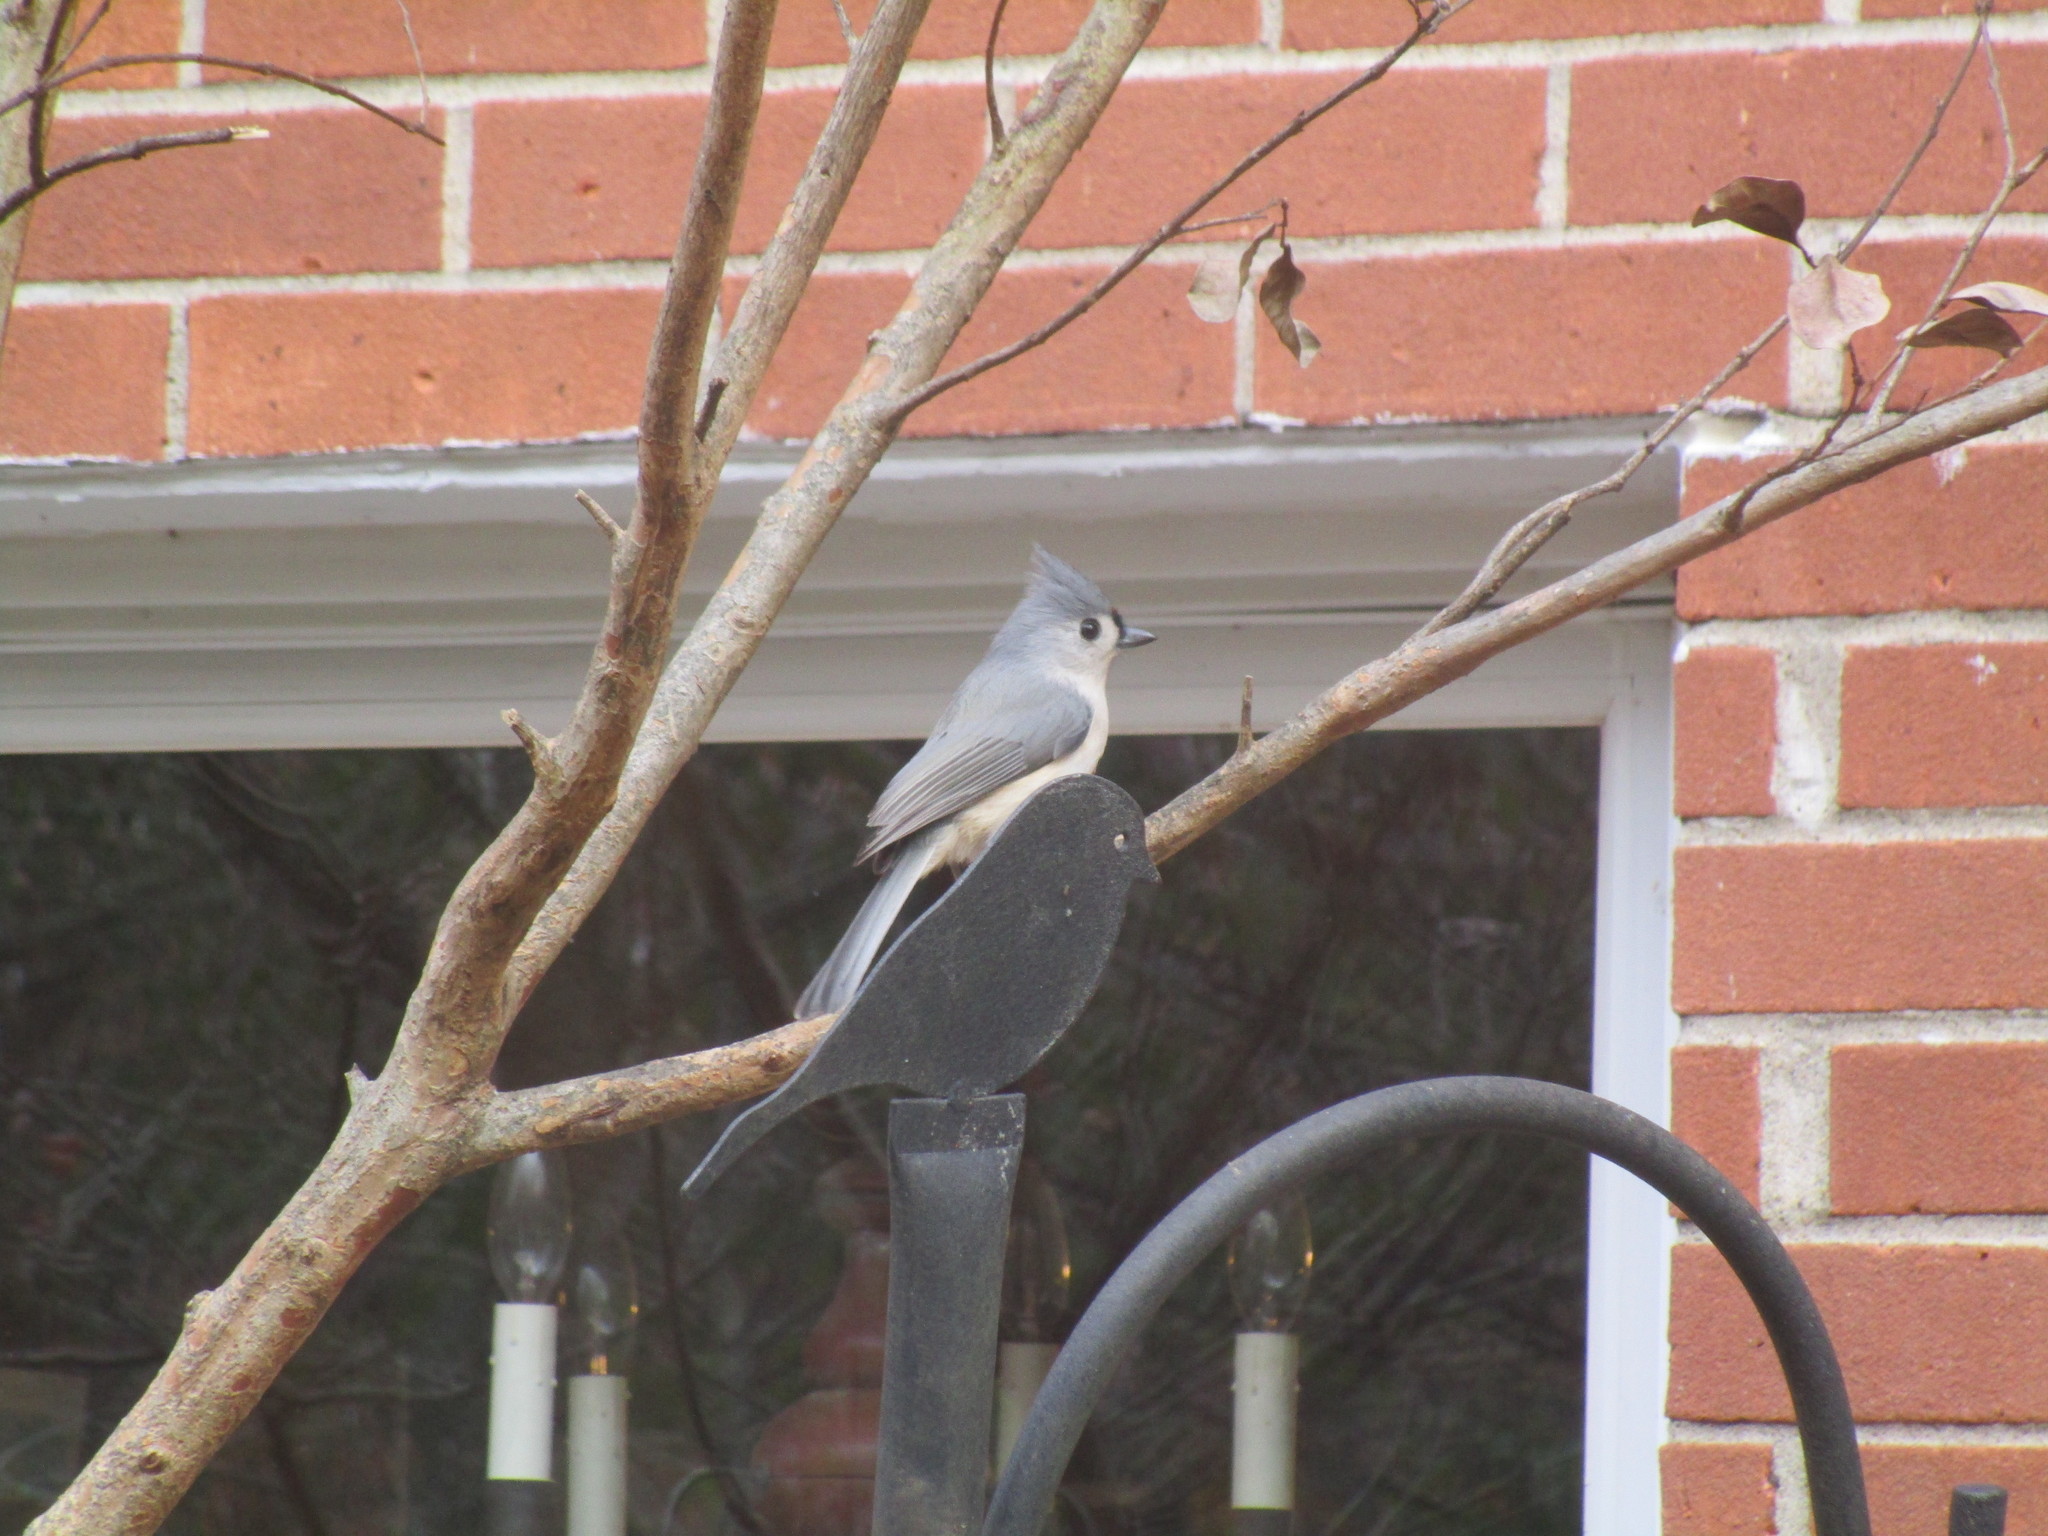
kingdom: Animalia
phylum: Chordata
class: Aves
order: Passeriformes
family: Paridae
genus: Baeolophus
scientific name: Baeolophus bicolor
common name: Tufted titmouse
